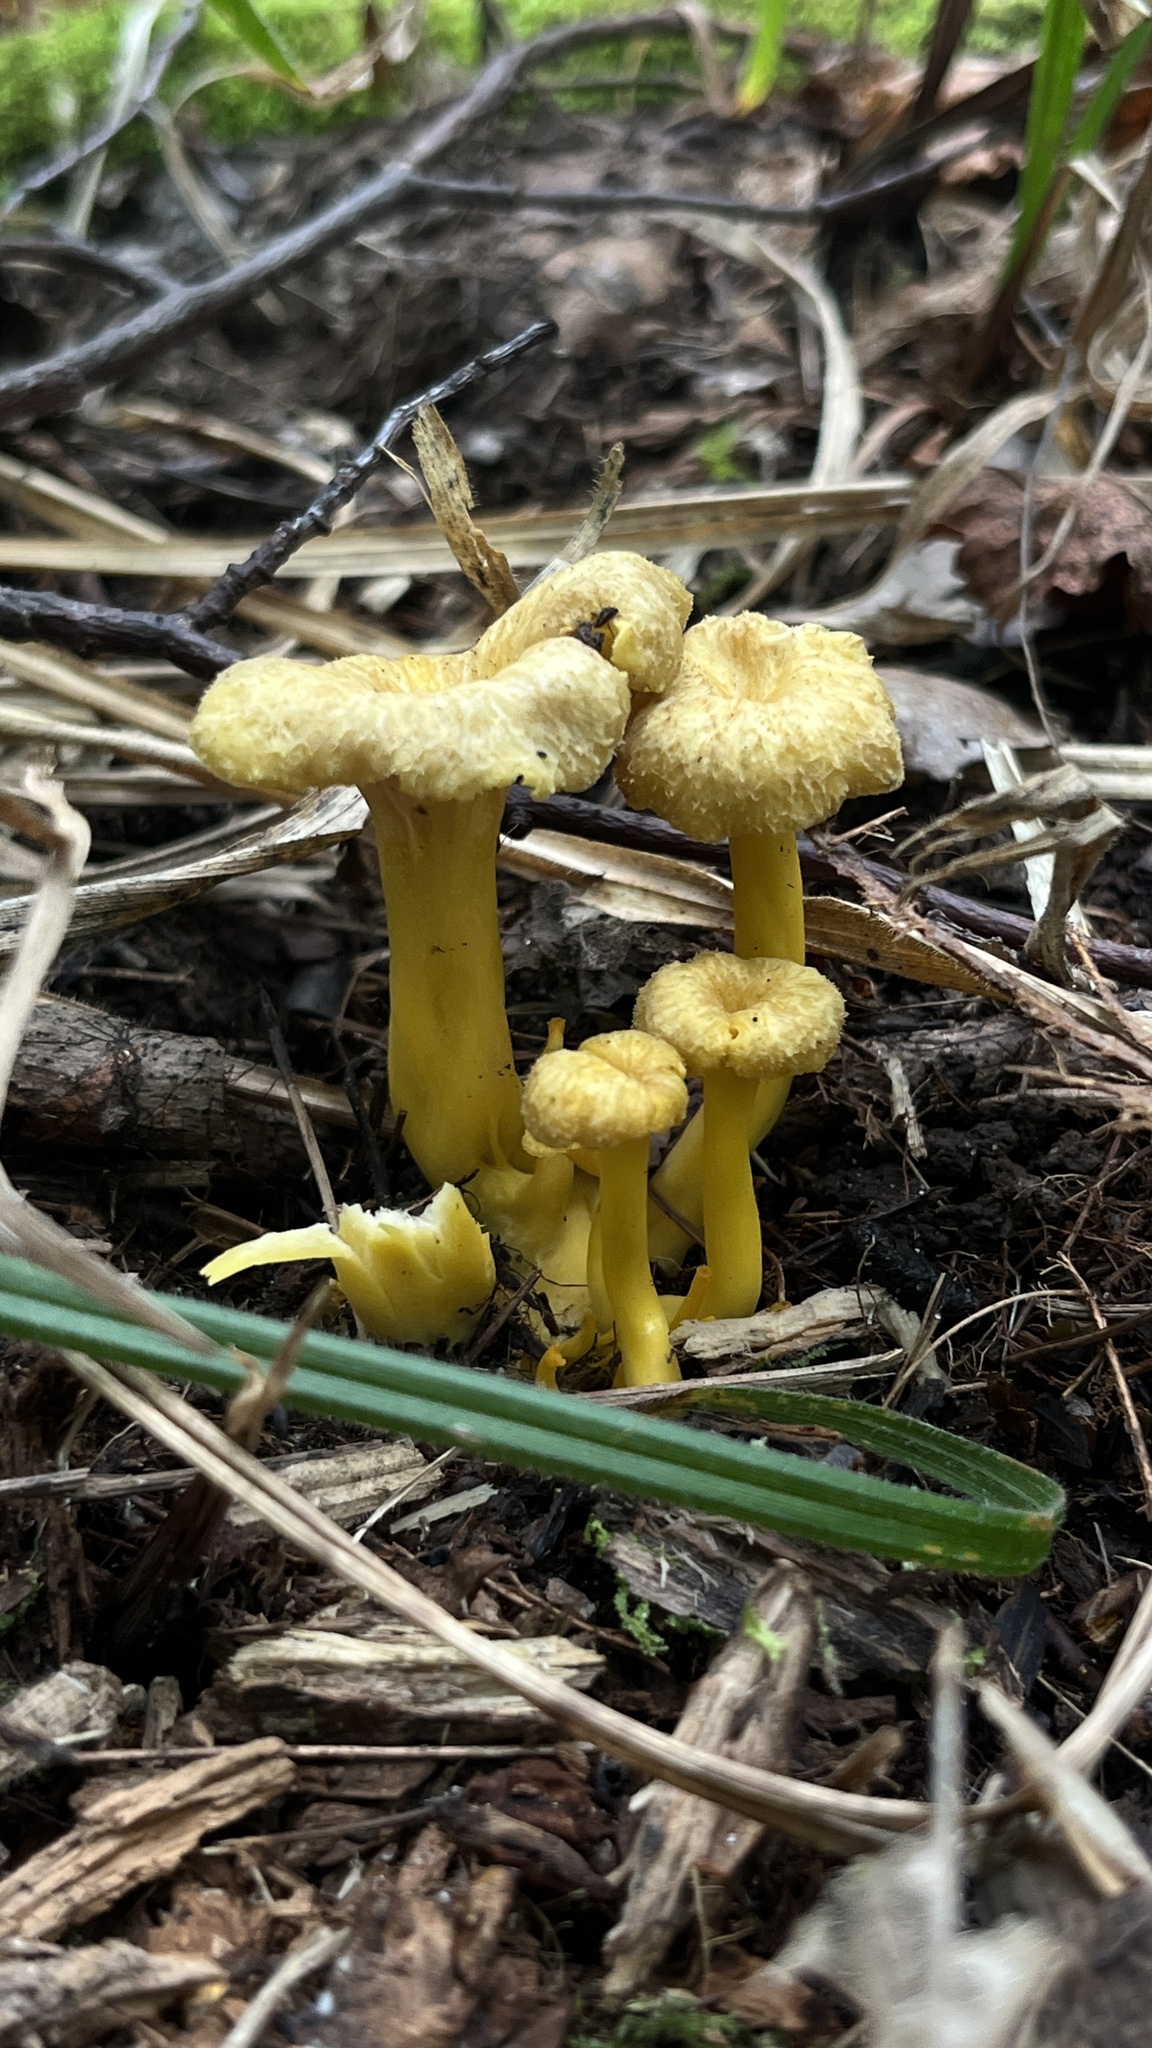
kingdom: Fungi
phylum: Basidiomycota
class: Agaricomycetes
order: Cantharellales
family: Hydnaceae
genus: Craterellus
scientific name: Craterellus tubaeformis
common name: Yellowfoot
